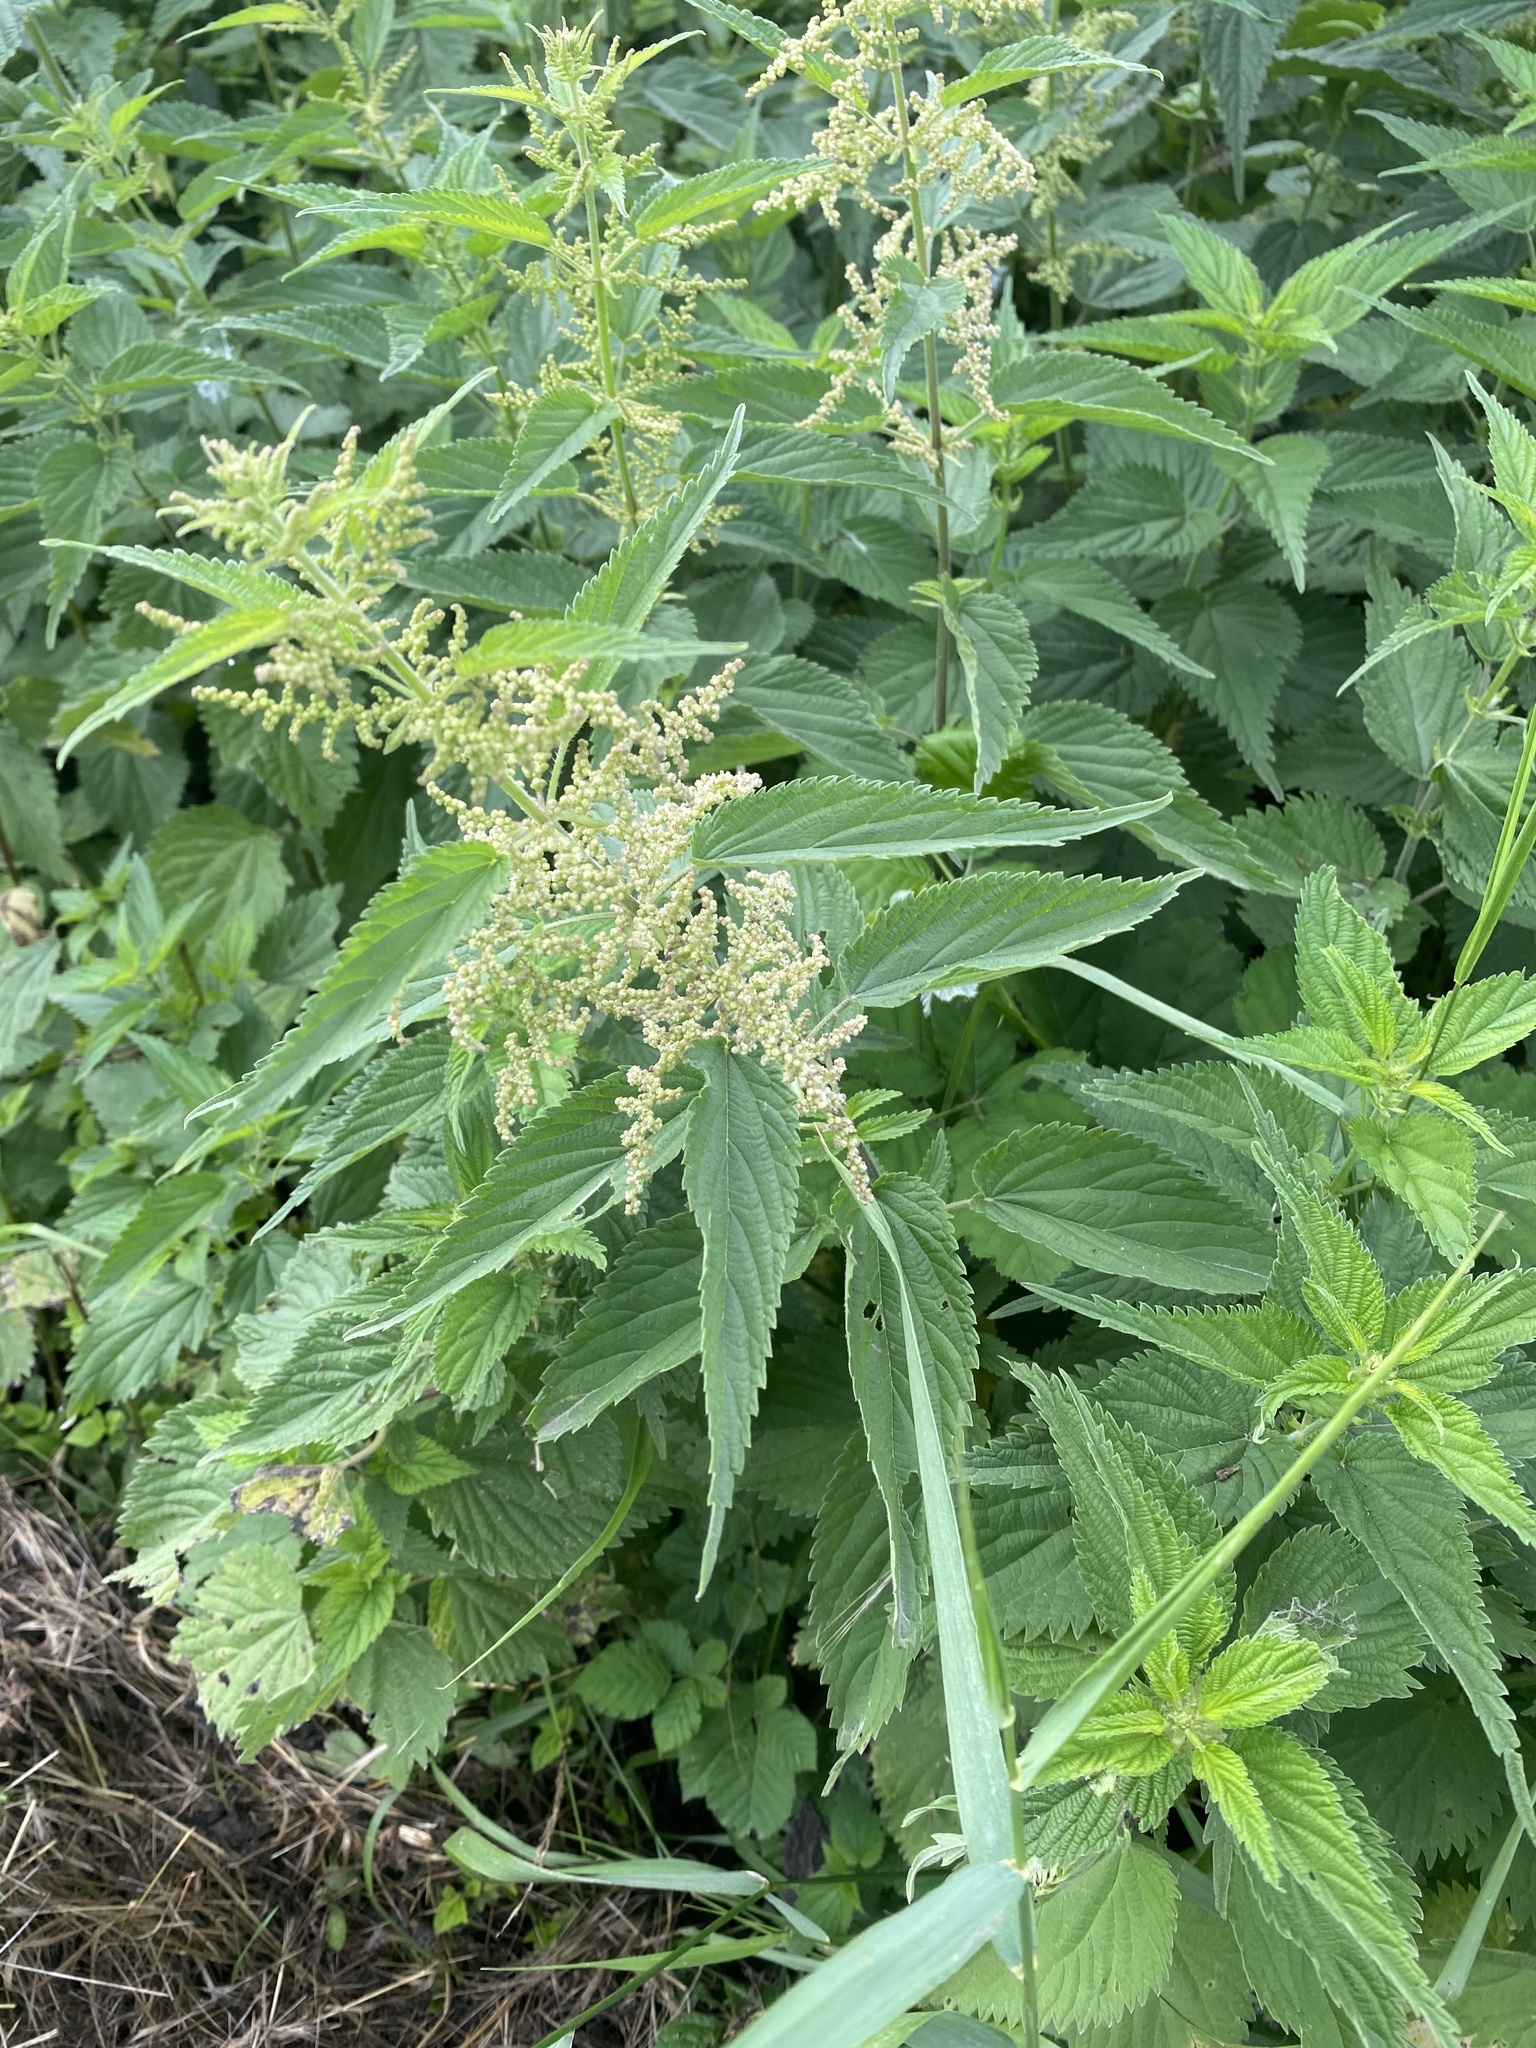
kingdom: Plantae
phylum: Tracheophyta
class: Magnoliopsida
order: Rosales
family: Urticaceae
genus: Urtica
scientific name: Urtica dioica
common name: Common nettle
